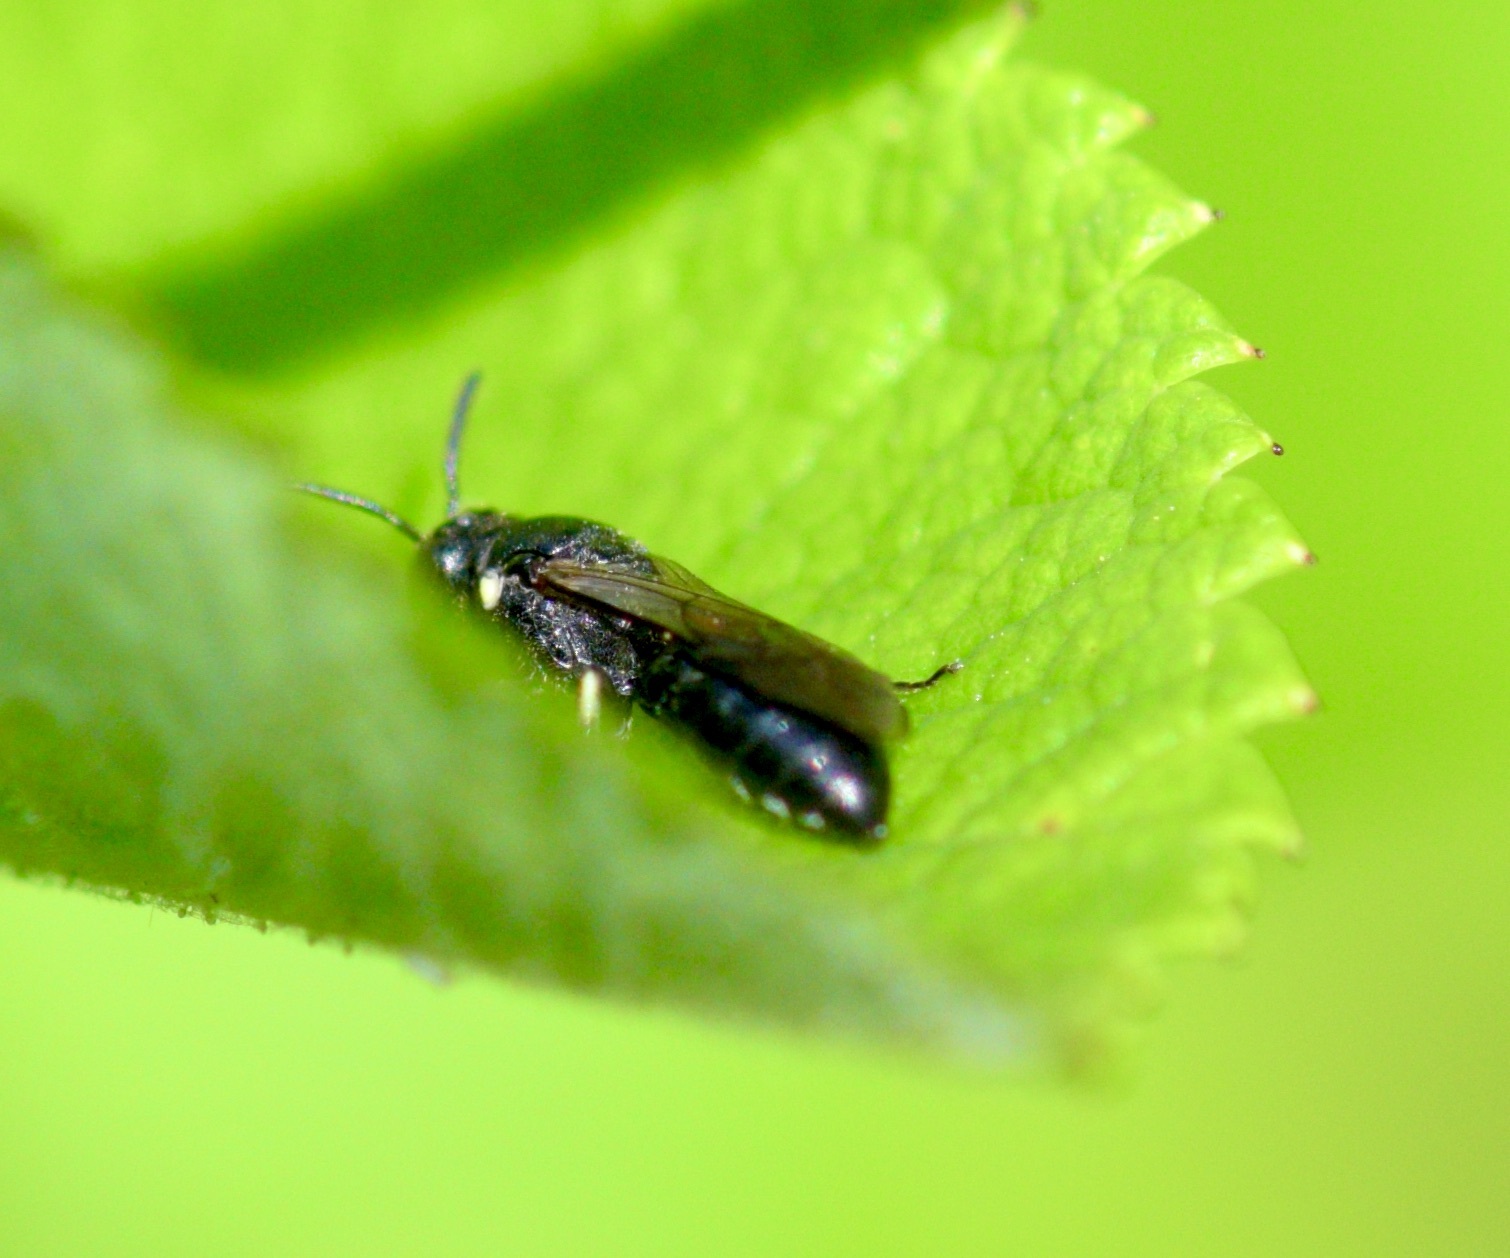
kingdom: Animalia
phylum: Arthropoda
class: Insecta
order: Hymenoptera
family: Colletidae
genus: Hylaeus
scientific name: Hylaeus annulatus
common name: Annulate masked bee
